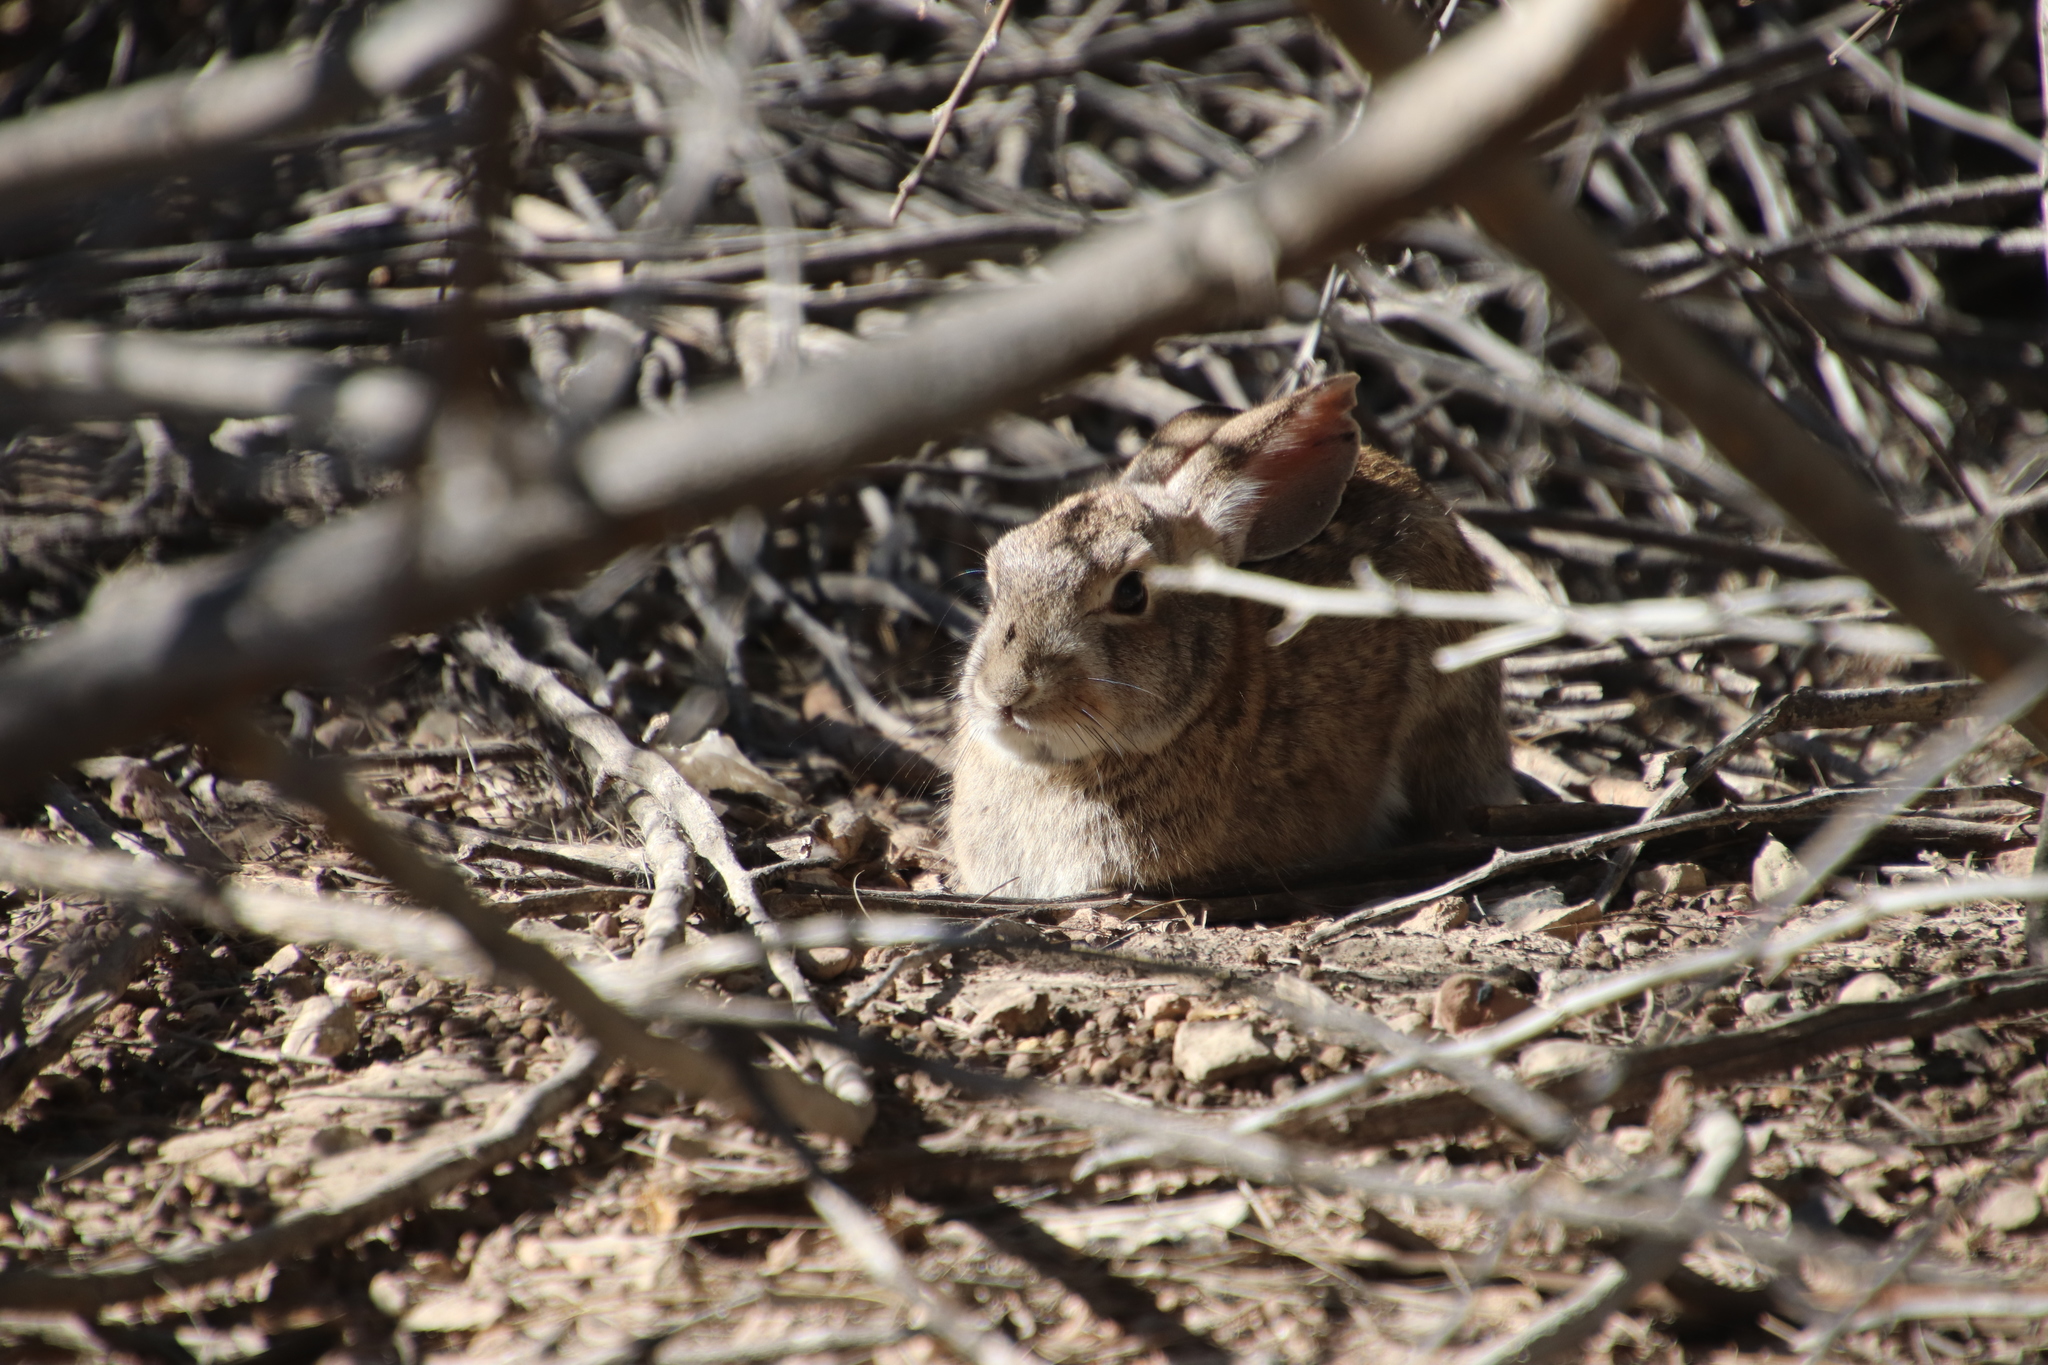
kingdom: Animalia
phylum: Chordata
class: Mammalia
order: Lagomorpha
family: Leporidae
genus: Sylvilagus
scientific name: Sylvilagus audubonii
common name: Desert cottontail
